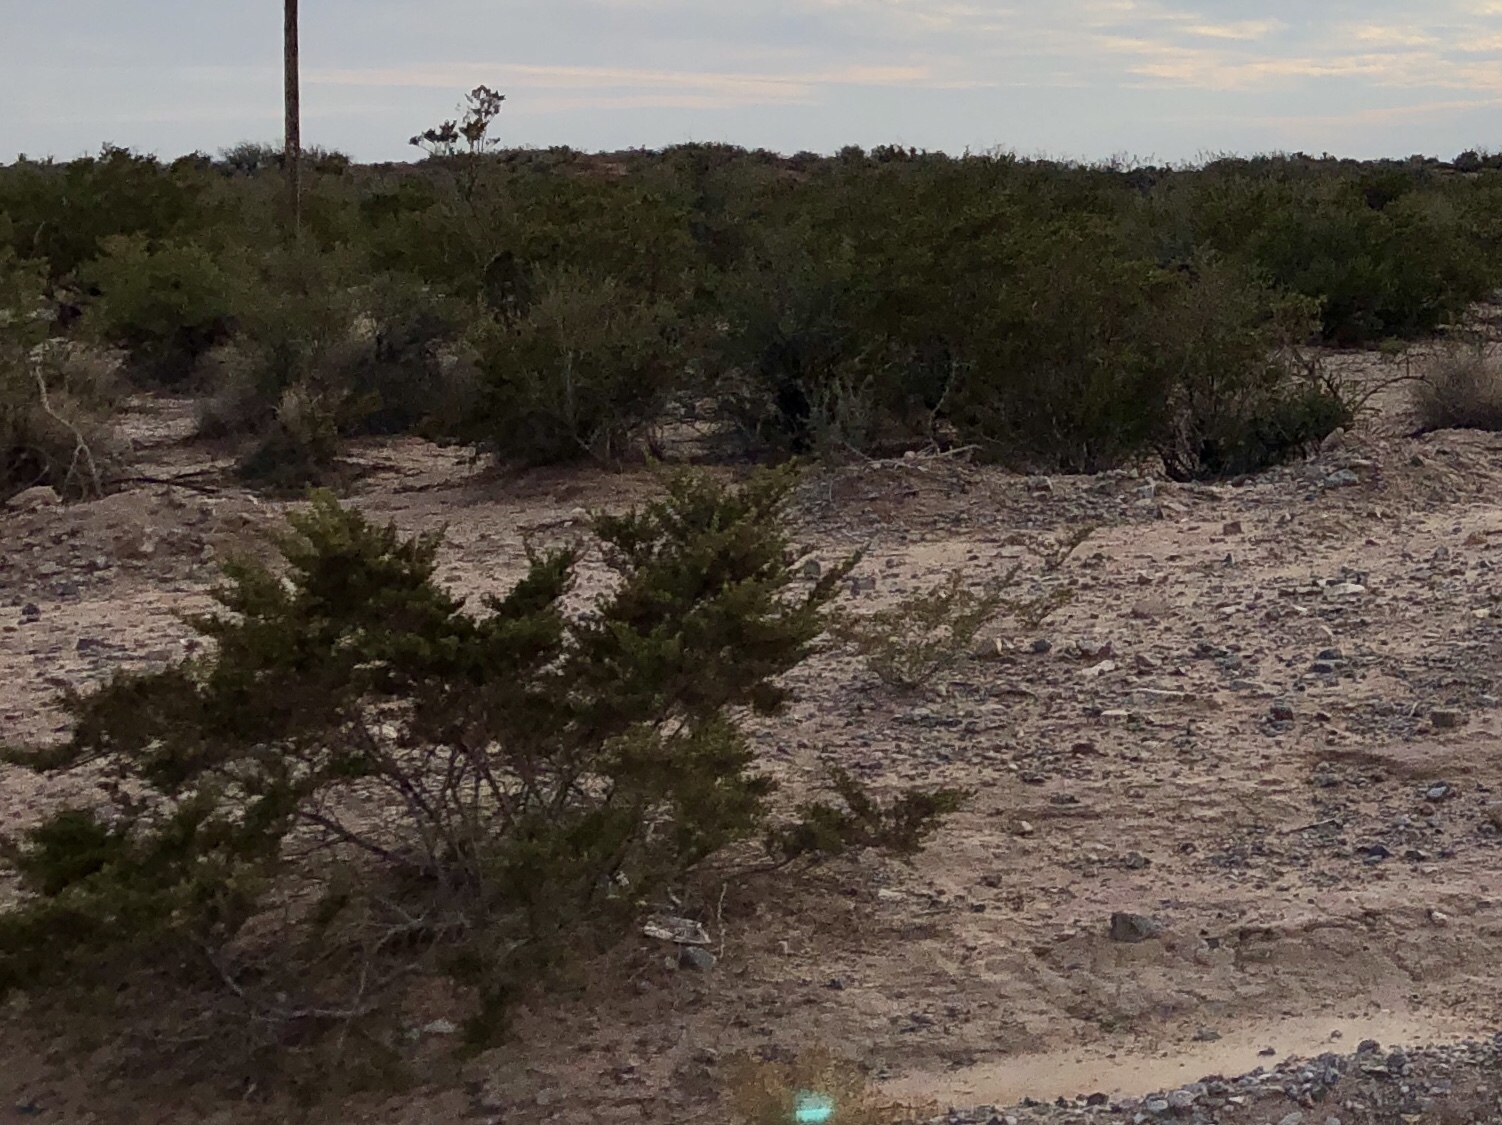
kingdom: Plantae
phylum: Tracheophyta
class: Magnoliopsida
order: Zygophyllales
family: Zygophyllaceae
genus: Larrea
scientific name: Larrea tridentata
